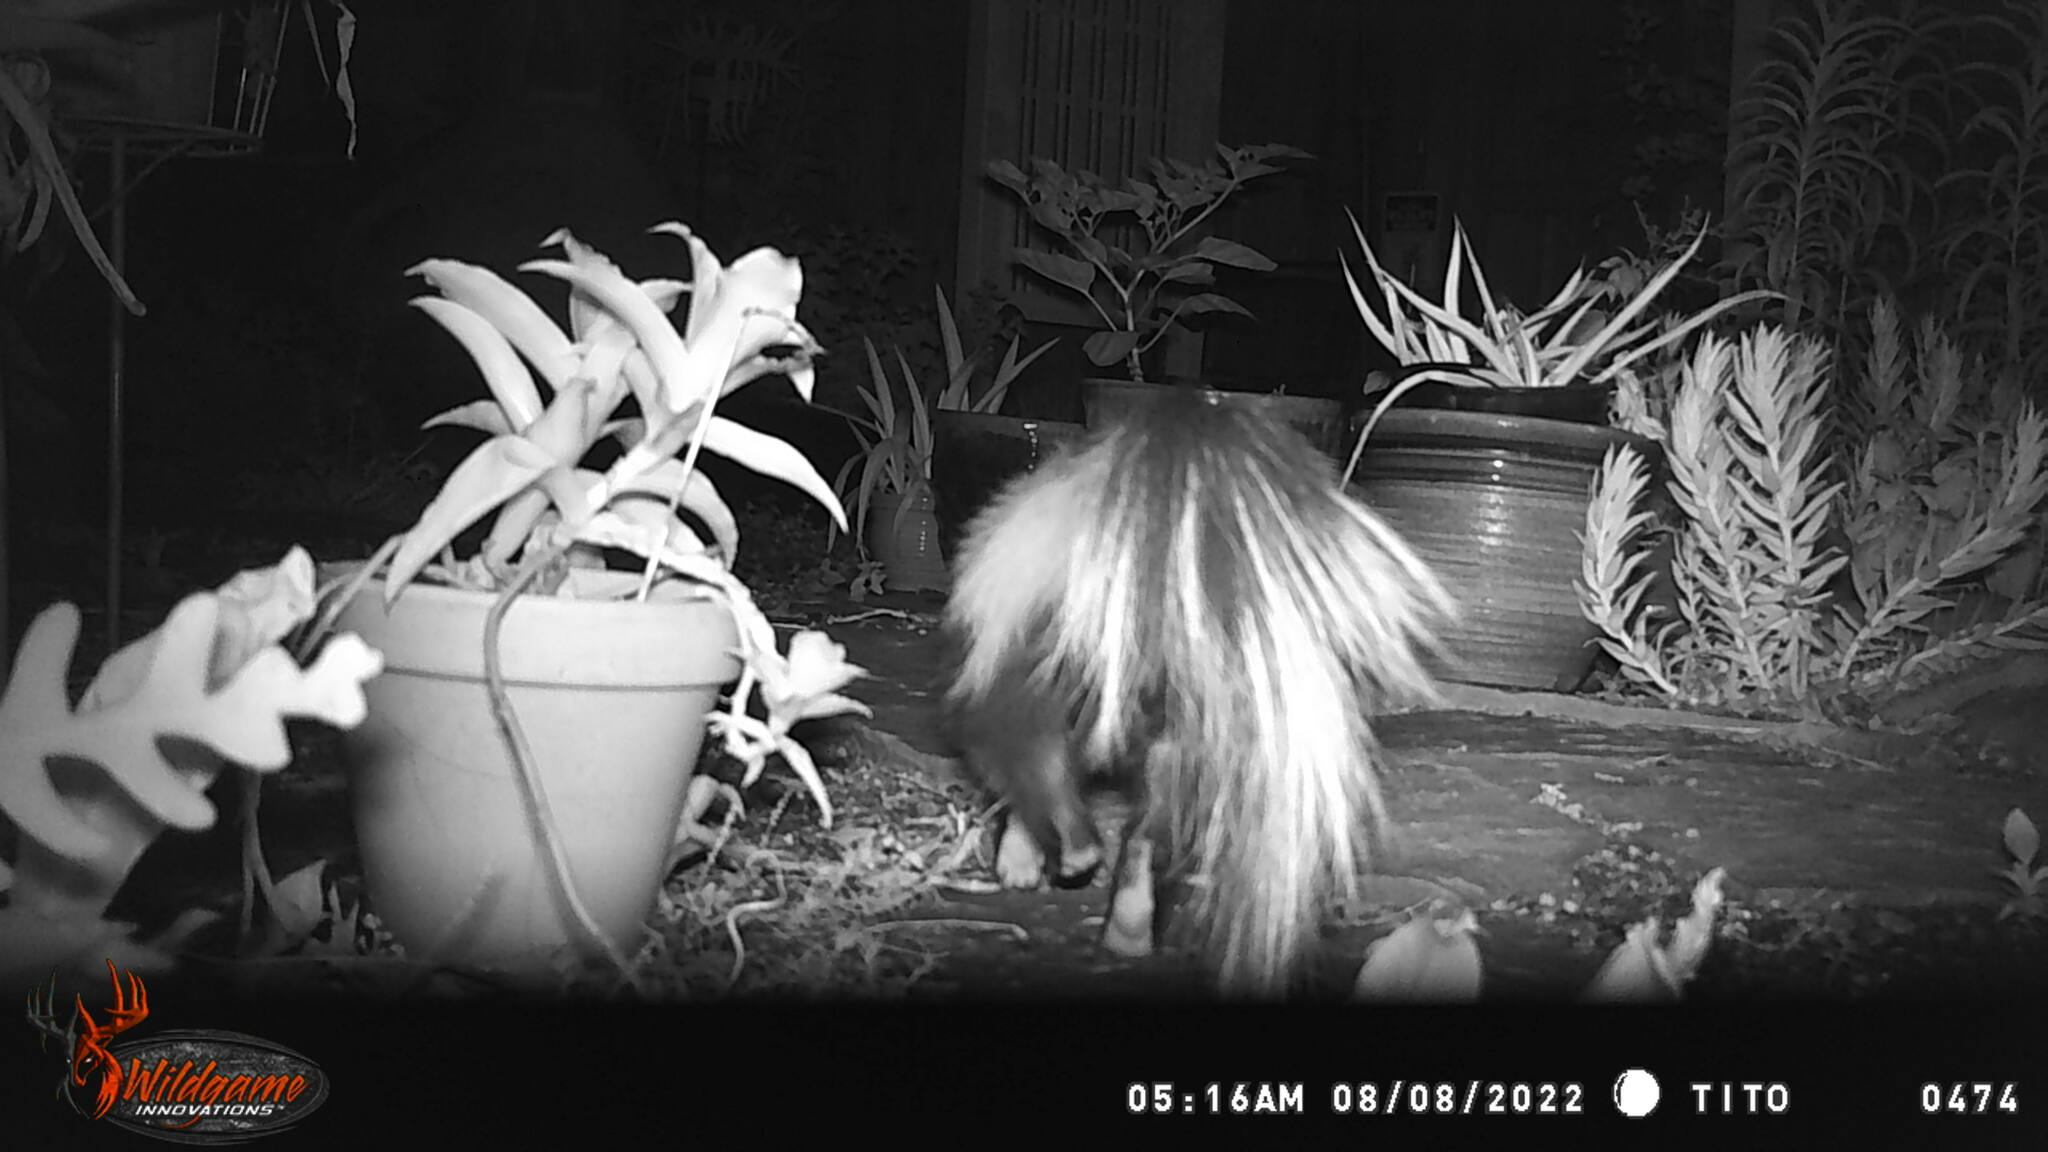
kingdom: Animalia
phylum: Chordata
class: Mammalia
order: Carnivora
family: Mephitidae
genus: Mephitis
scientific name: Mephitis mephitis
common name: Striped skunk
